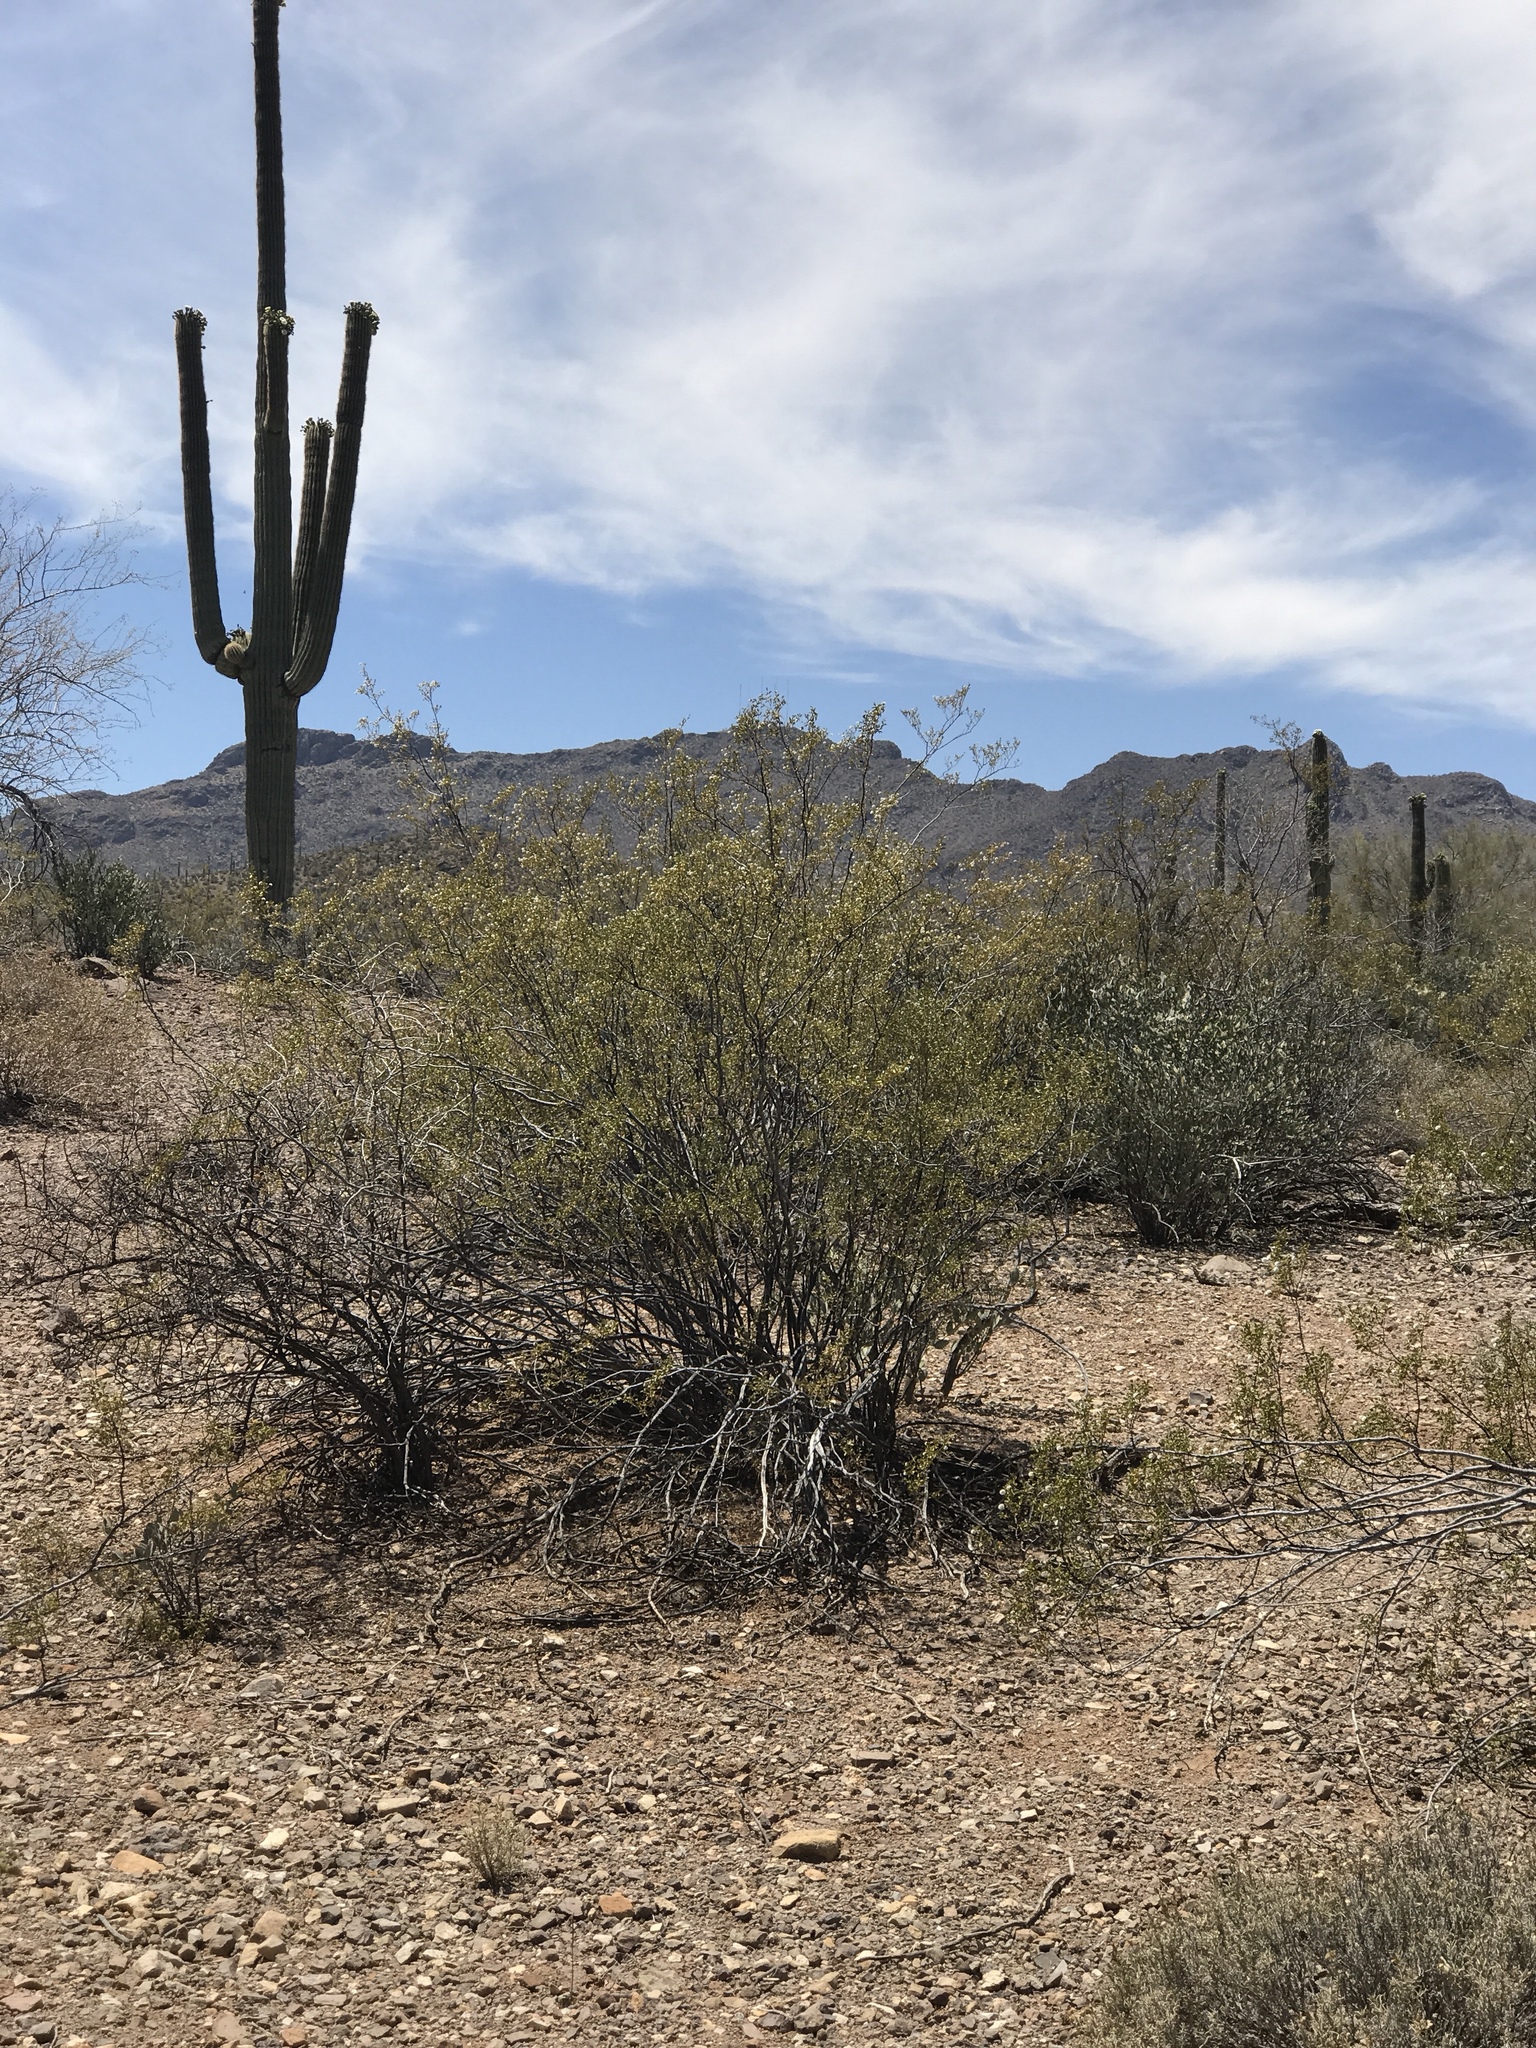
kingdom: Plantae
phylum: Tracheophyta
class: Magnoliopsida
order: Zygophyllales
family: Zygophyllaceae
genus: Larrea
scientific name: Larrea tridentata
